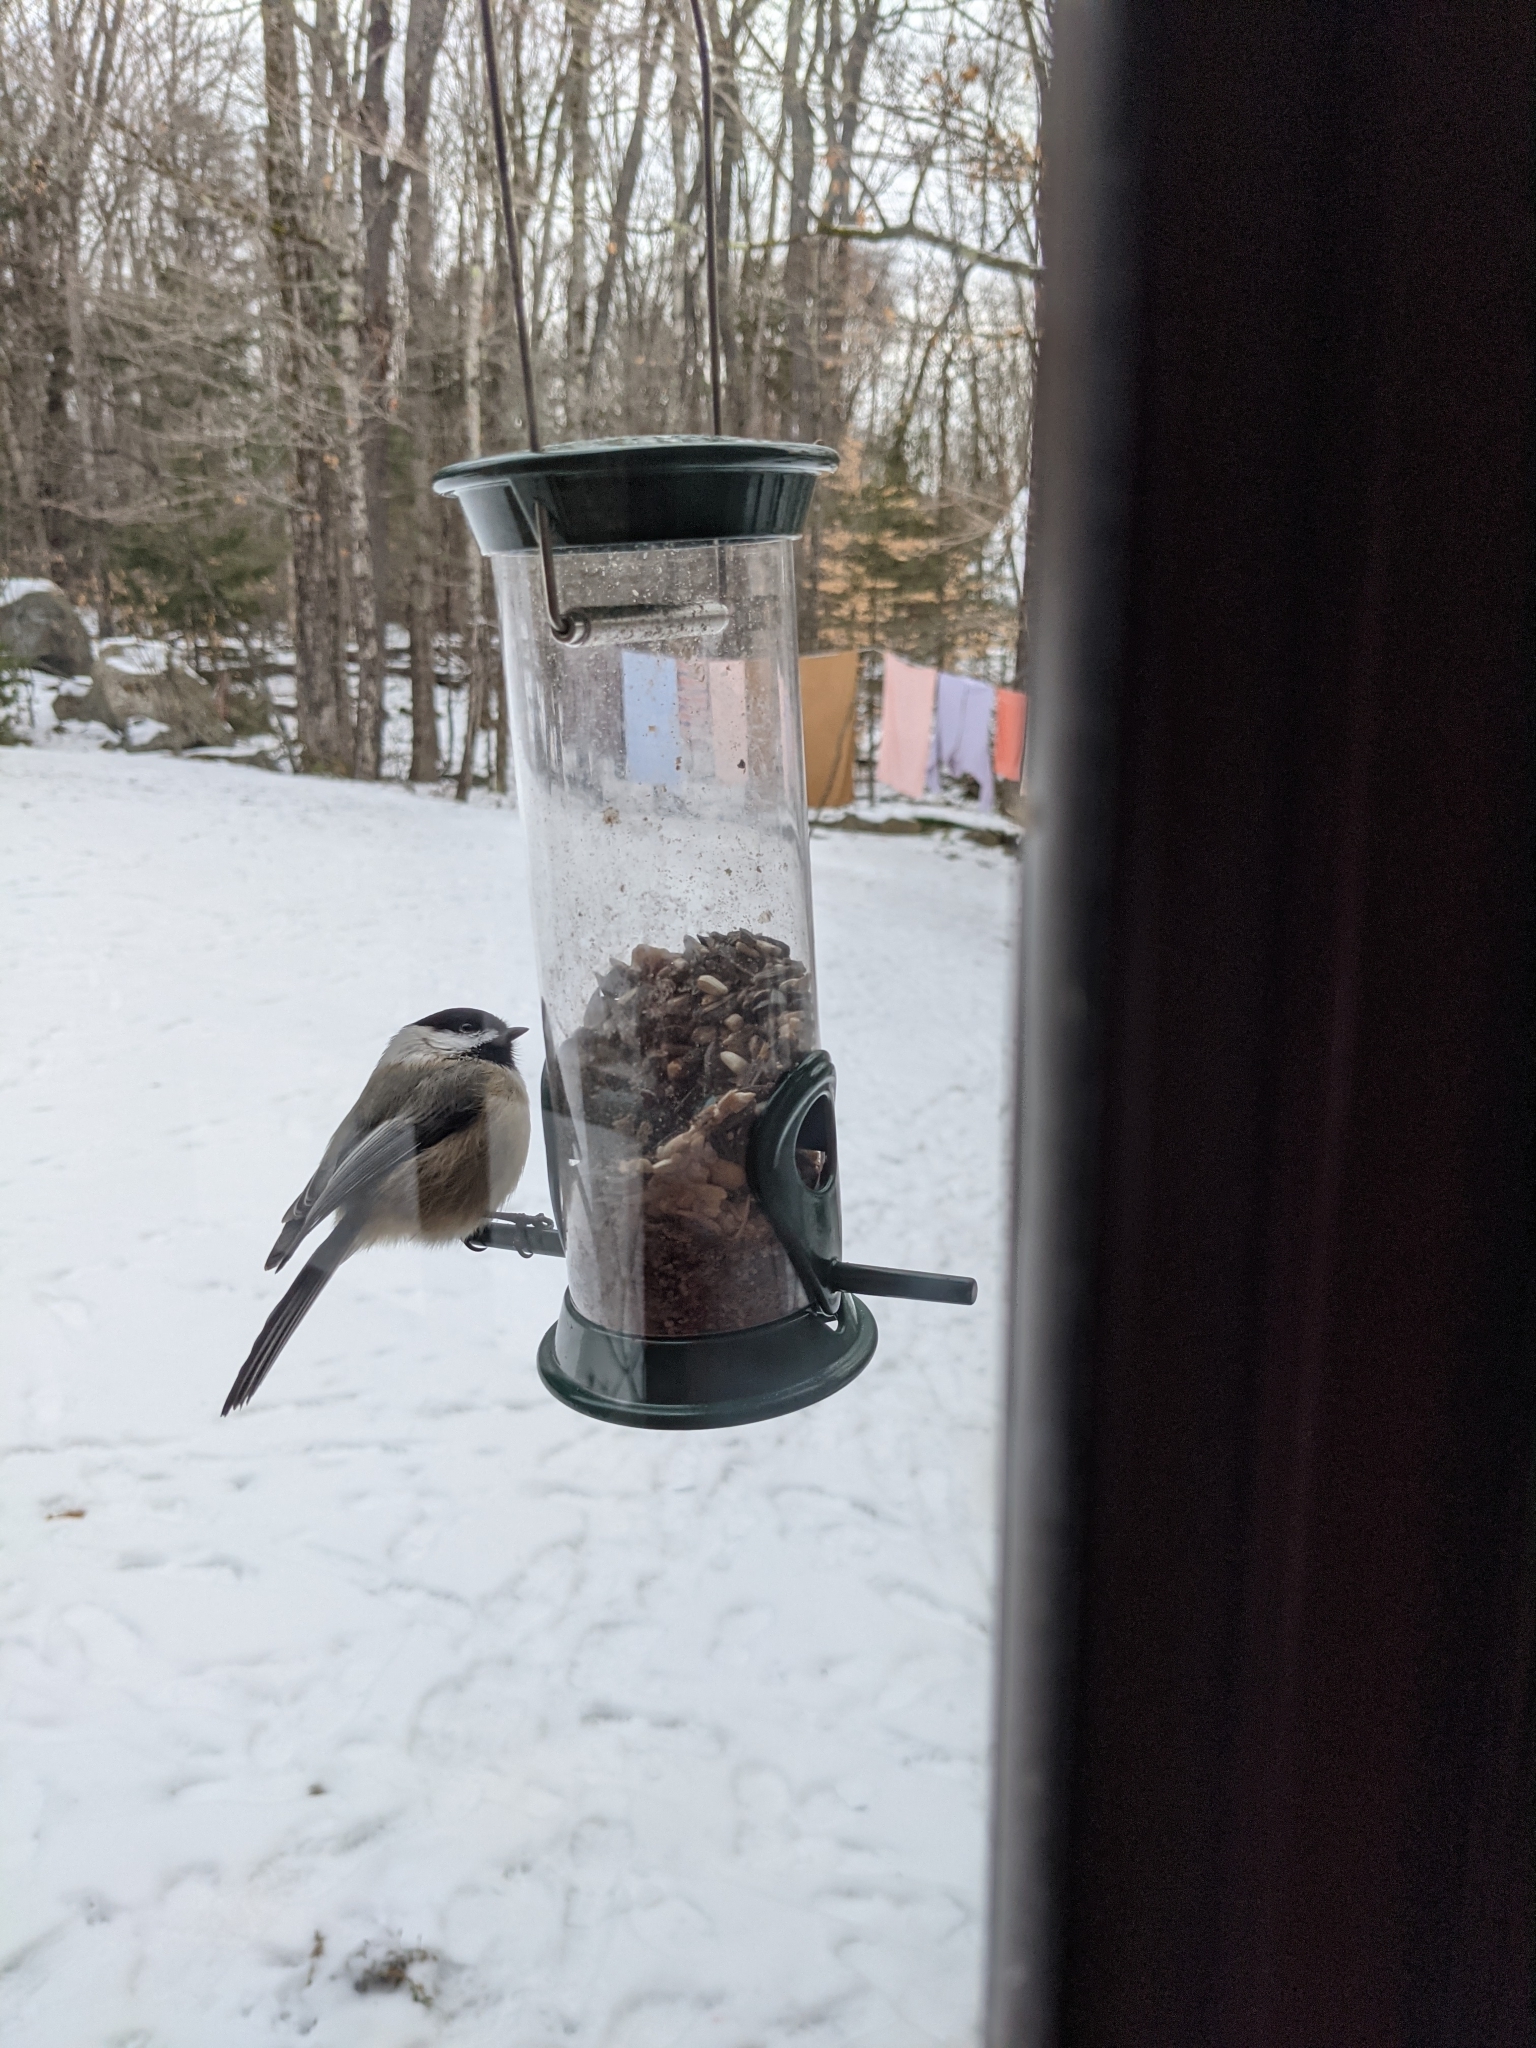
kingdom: Animalia
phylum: Chordata
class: Aves
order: Passeriformes
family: Paridae
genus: Poecile
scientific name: Poecile atricapillus
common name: Black-capped chickadee
